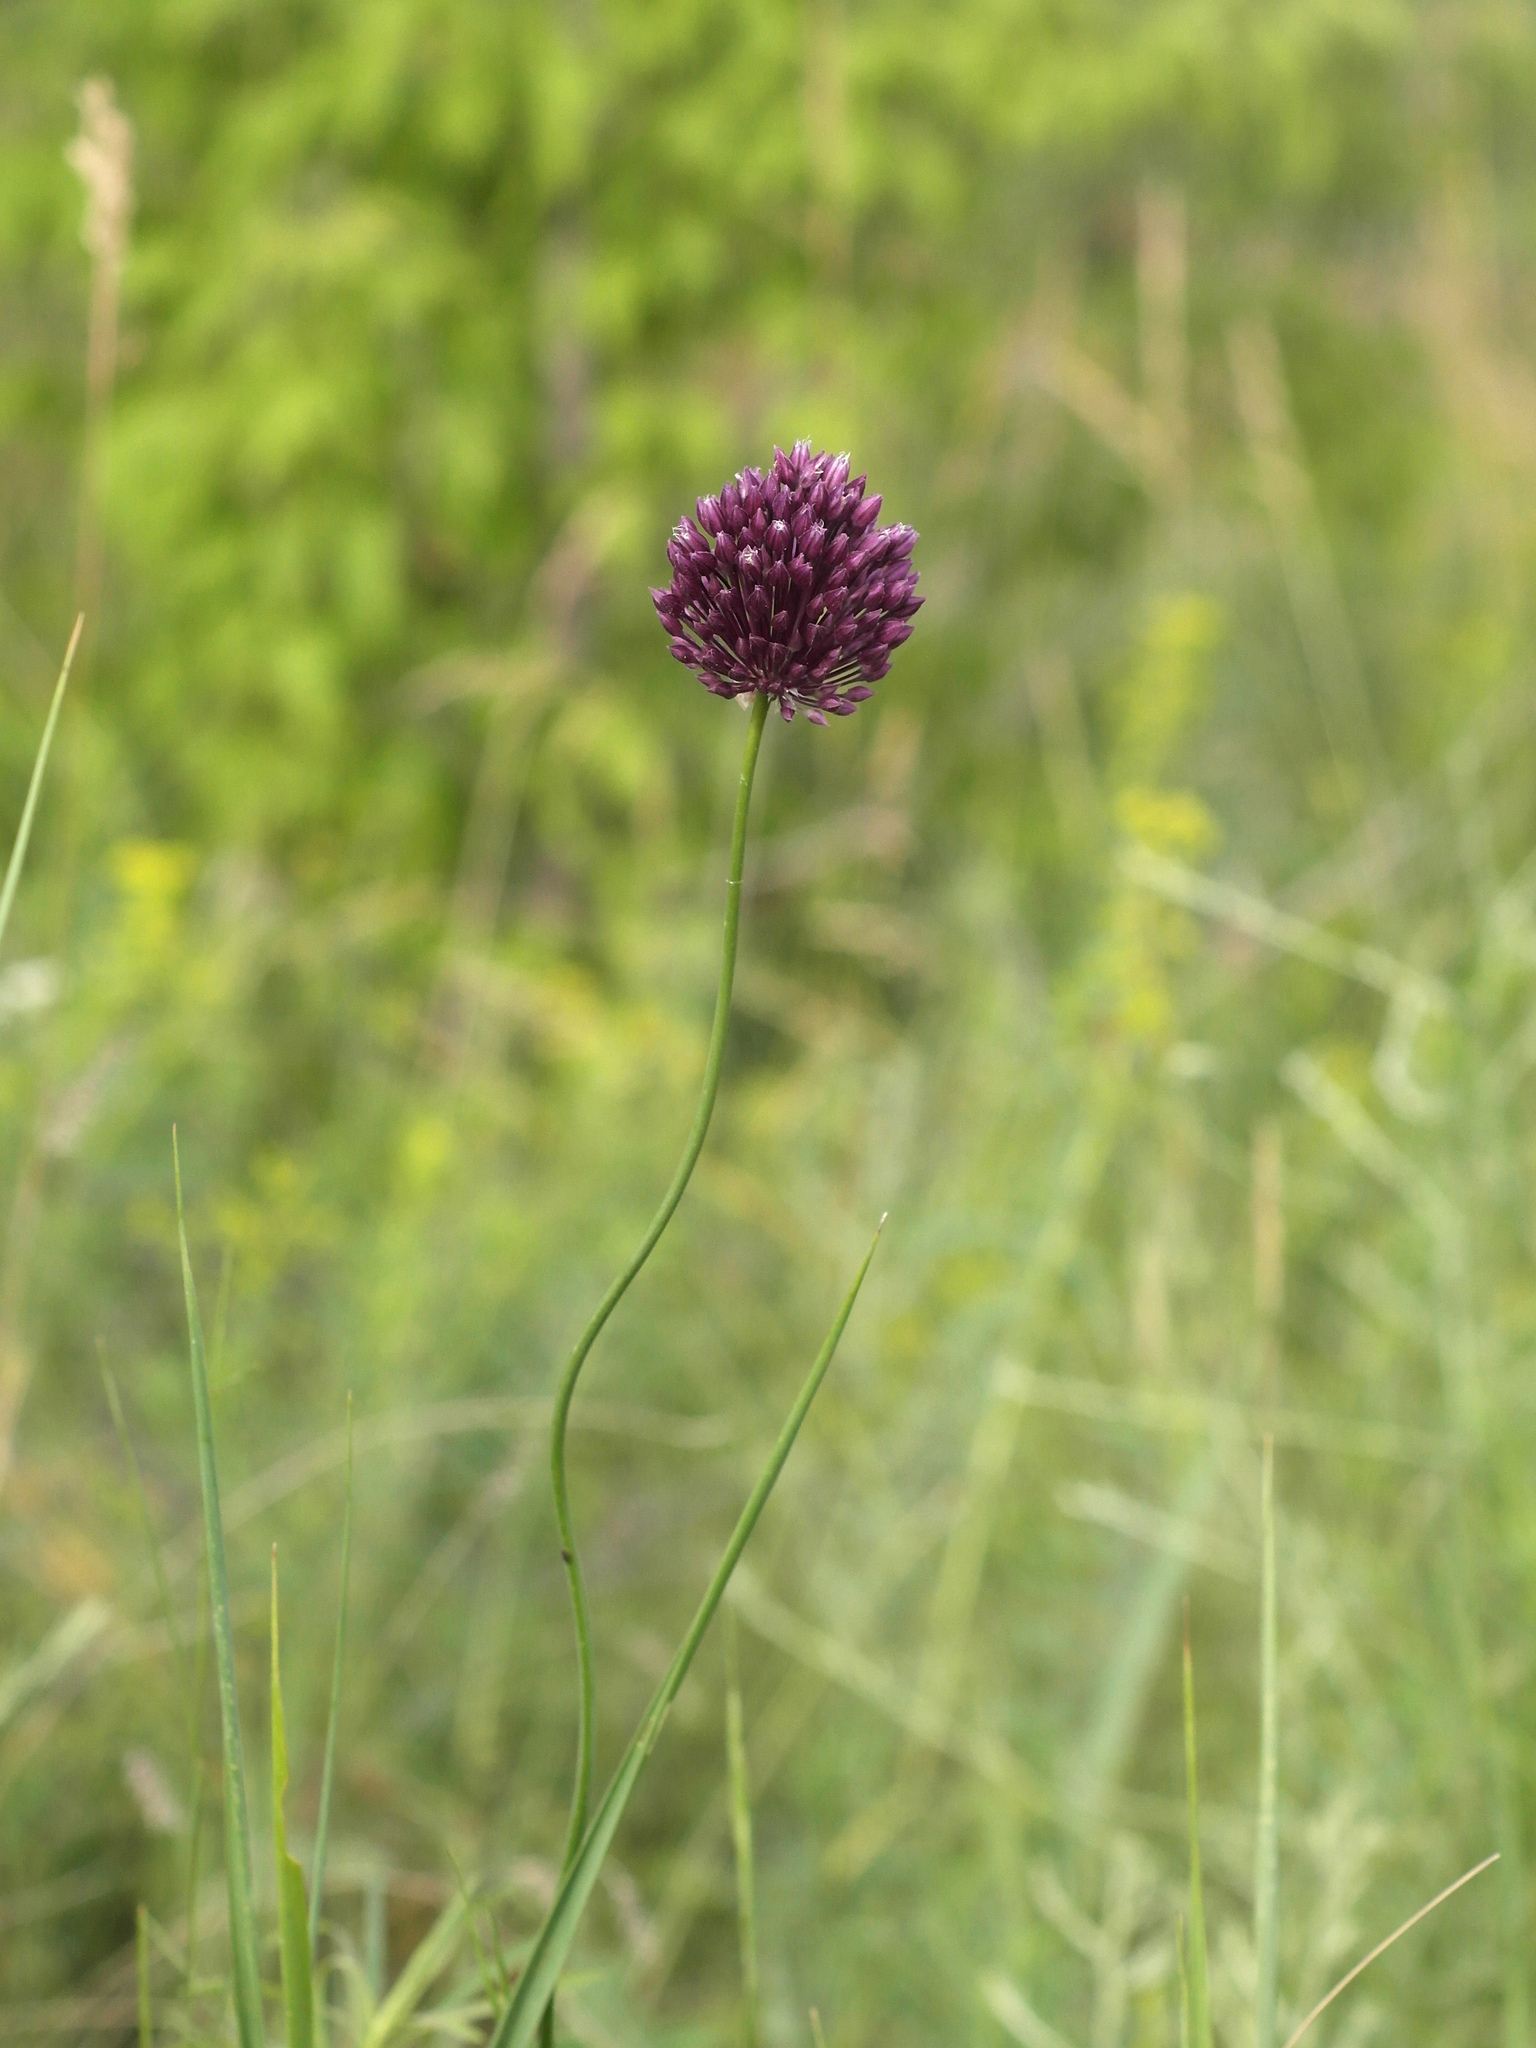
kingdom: Plantae
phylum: Tracheophyta
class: Liliopsida
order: Asparagales
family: Amaryllidaceae
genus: Allium
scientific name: Allium rotundum
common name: Sand leek
